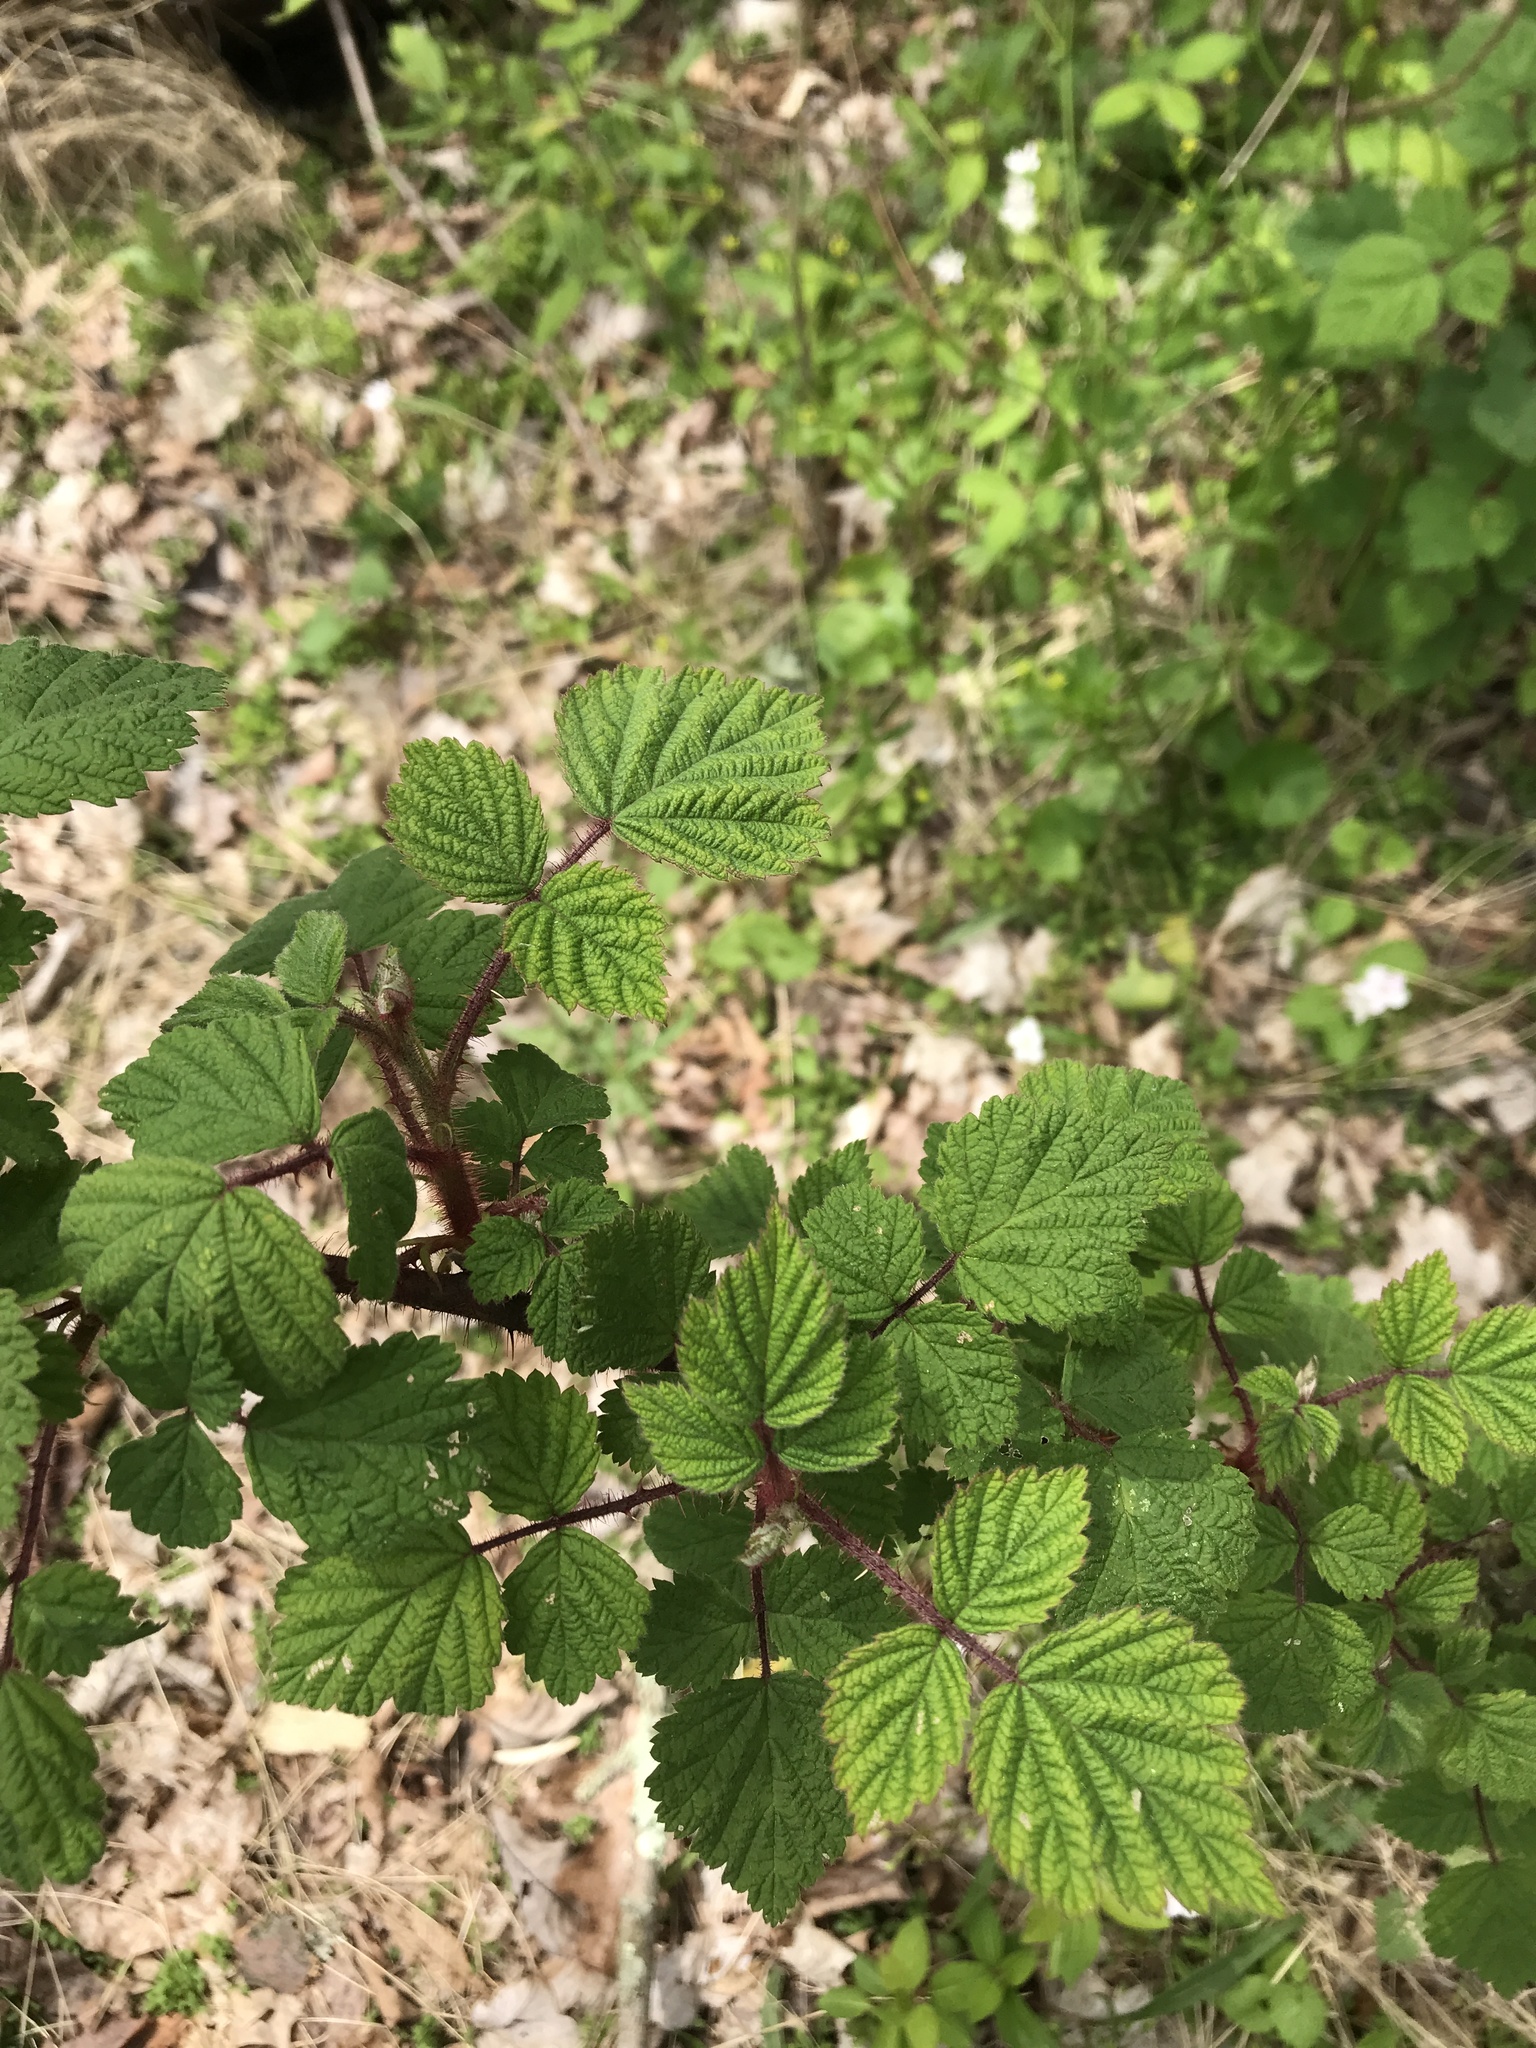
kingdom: Plantae
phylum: Tracheophyta
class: Magnoliopsida
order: Rosales
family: Rosaceae
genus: Rubus
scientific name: Rubus phoenicolasius
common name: Japanese wineberry
